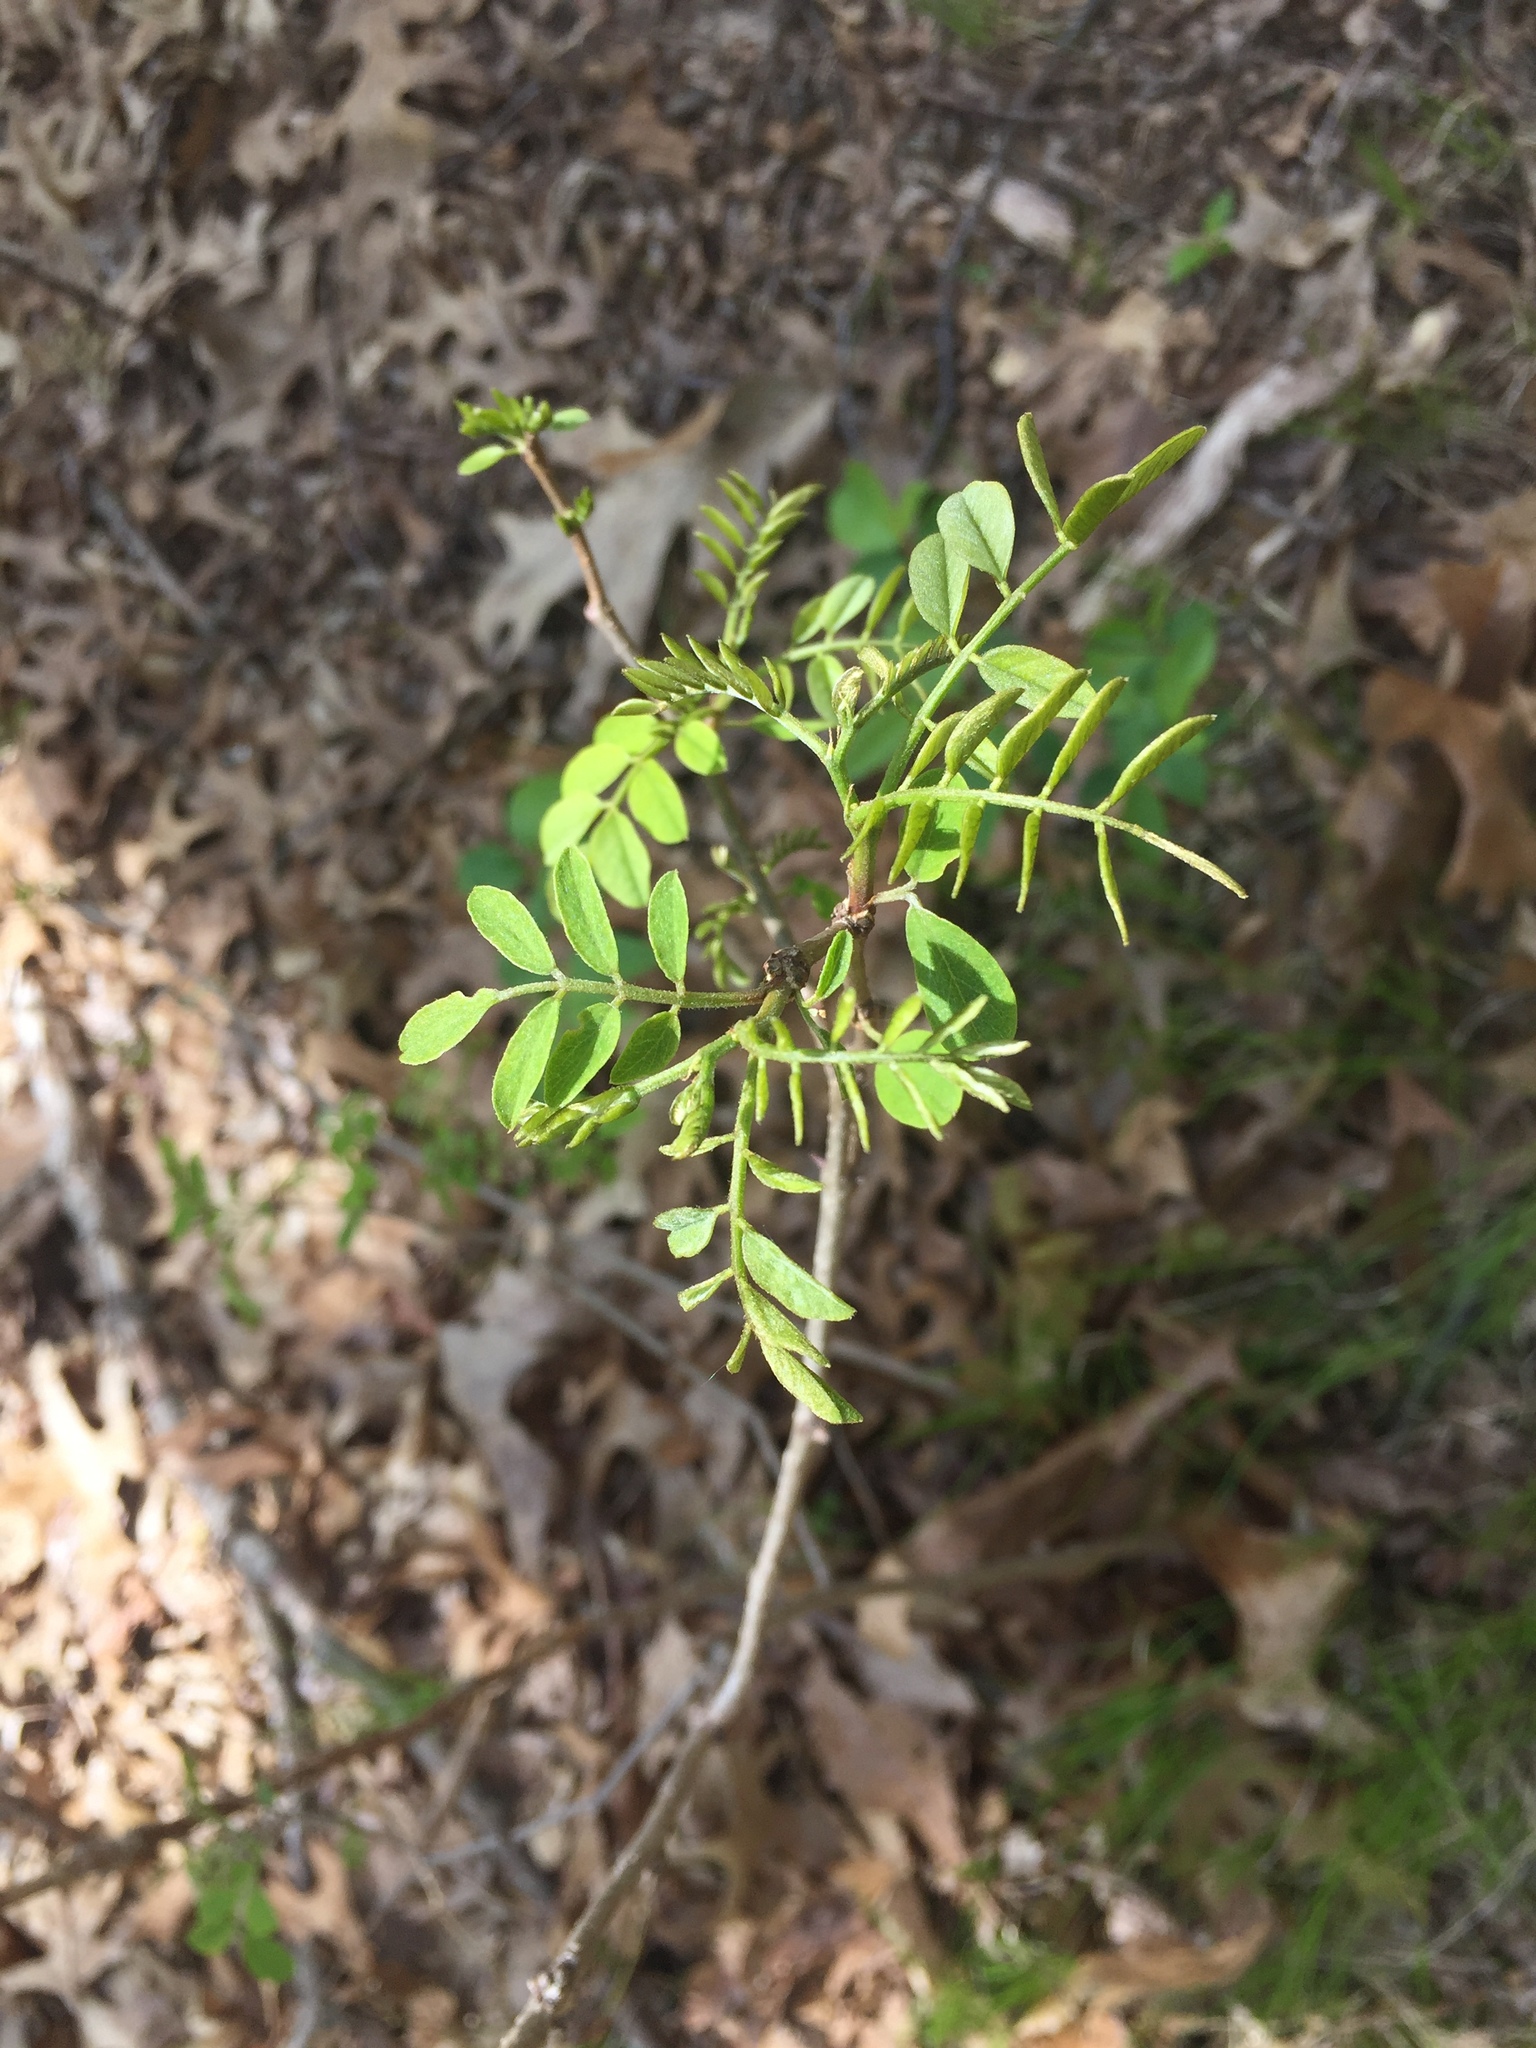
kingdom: Plantae
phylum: Tracheophyta
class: Magnoliopsida
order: Fabales
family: Fabaceae
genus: Gleditsia
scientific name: Gleditsia triacanthos
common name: Common honeylocust
